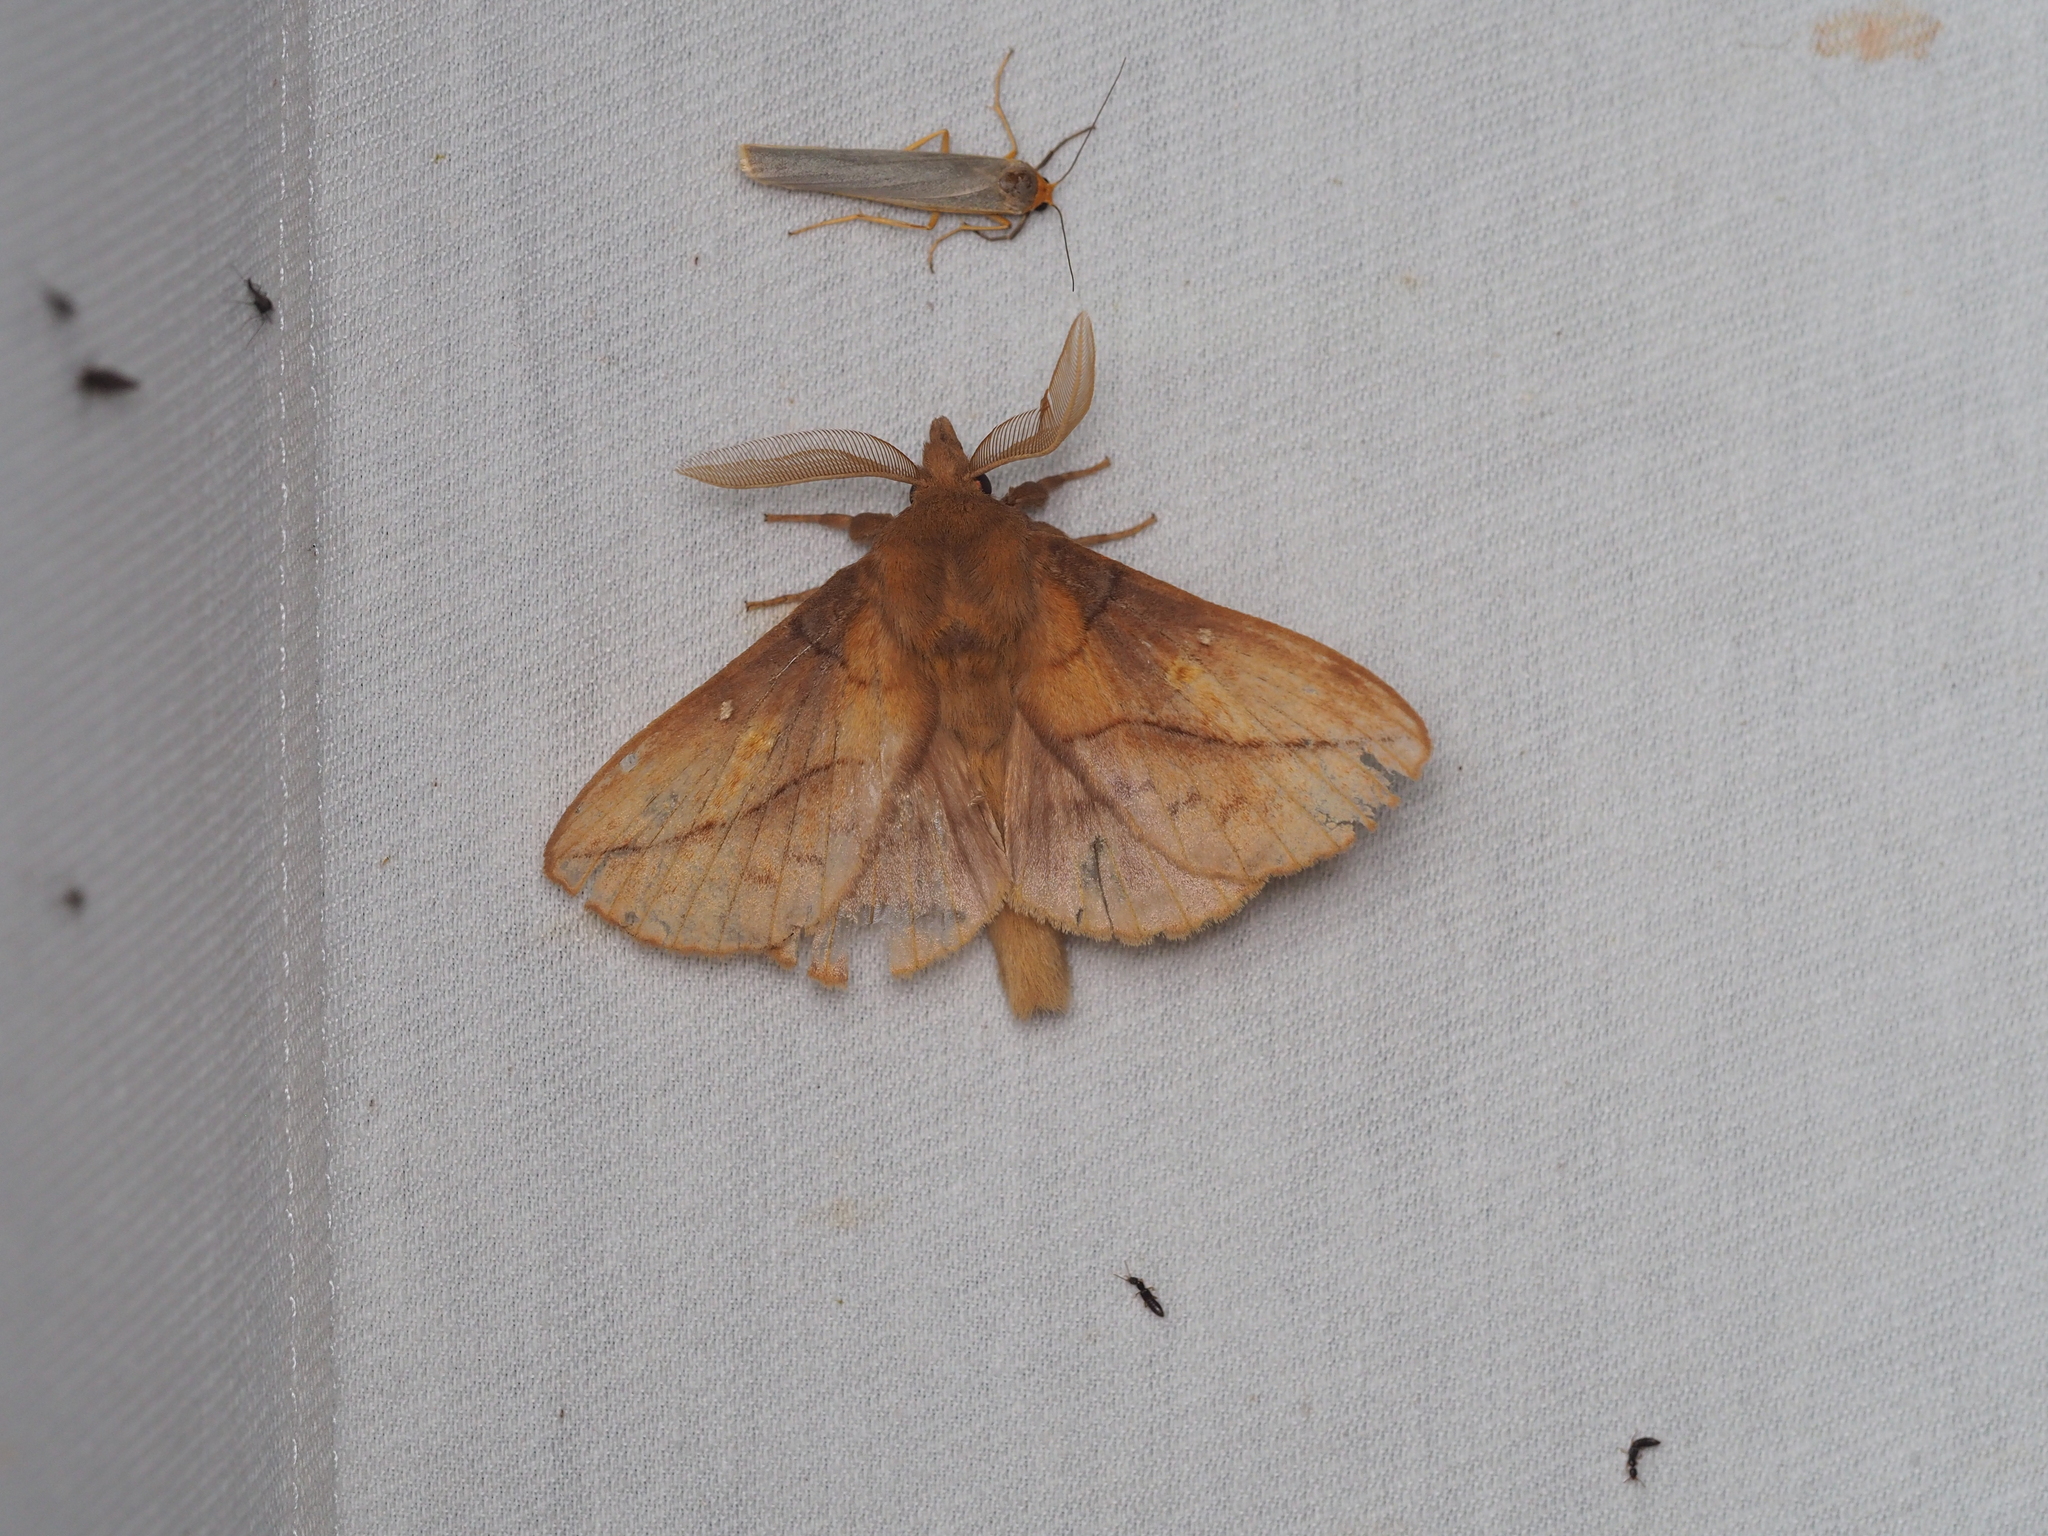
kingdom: Animalia
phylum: Arthropoda
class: Insecta
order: Lepidoptera
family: Lasiocampidae
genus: Euthrix
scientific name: Euthrix potatoria
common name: Drinker
